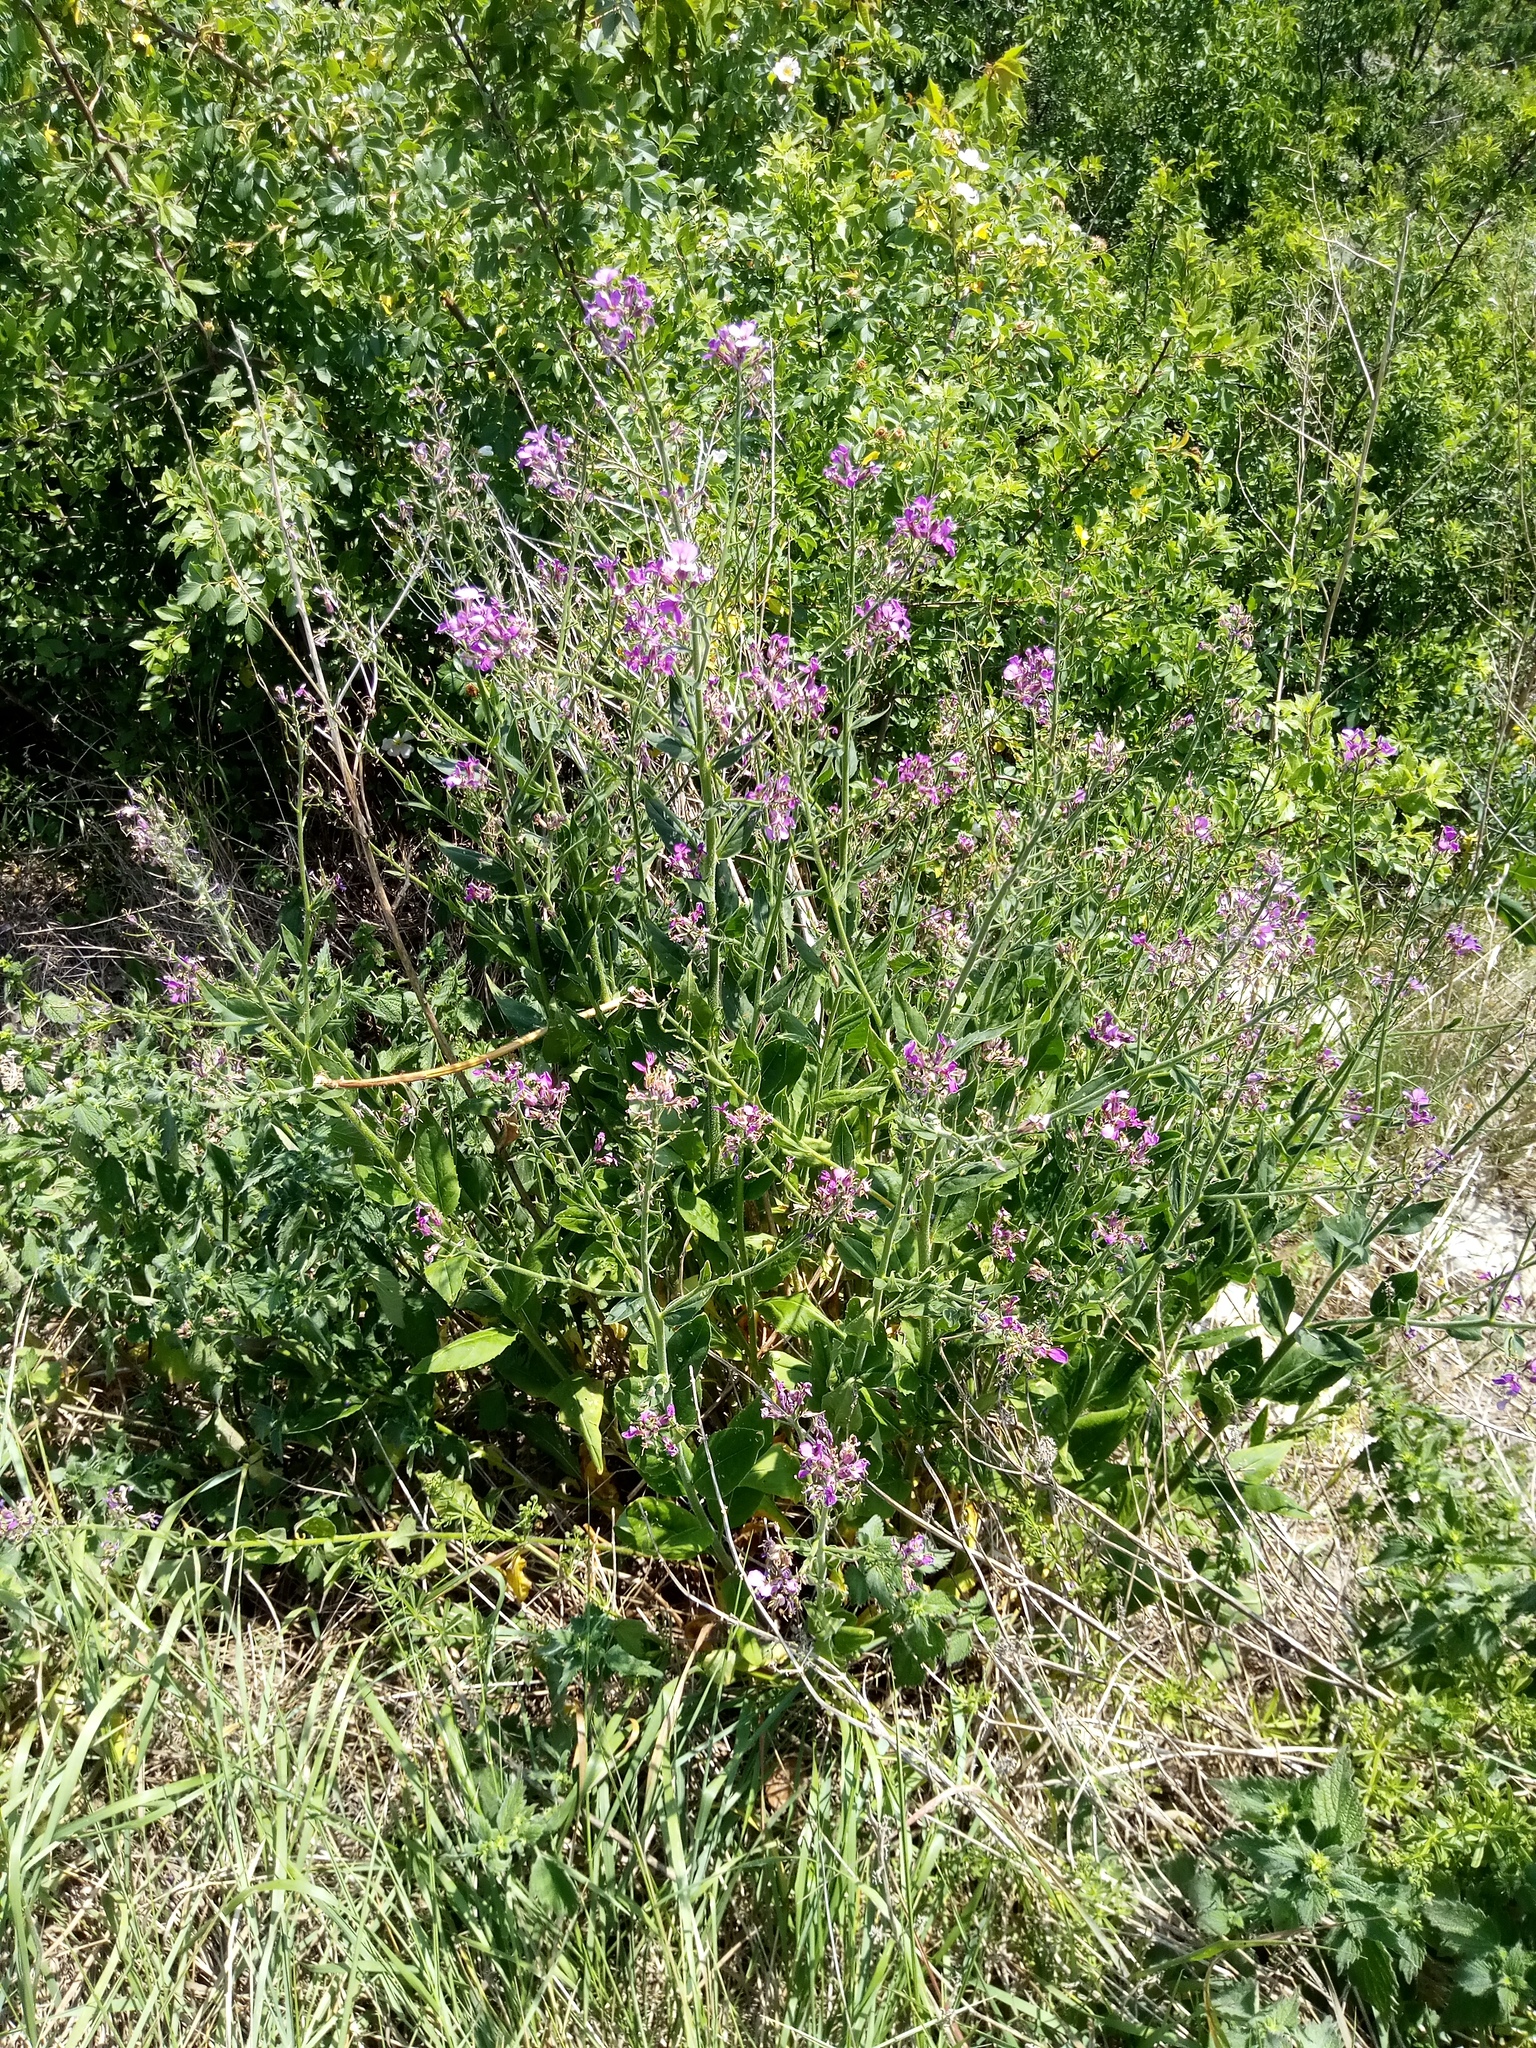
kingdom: Plantae
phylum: Tracheophyta
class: Magnoliopsida
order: Brassicales
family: Brassicaceae
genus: Hesperis
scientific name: Hesperis matronalis
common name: Dame's-violet
